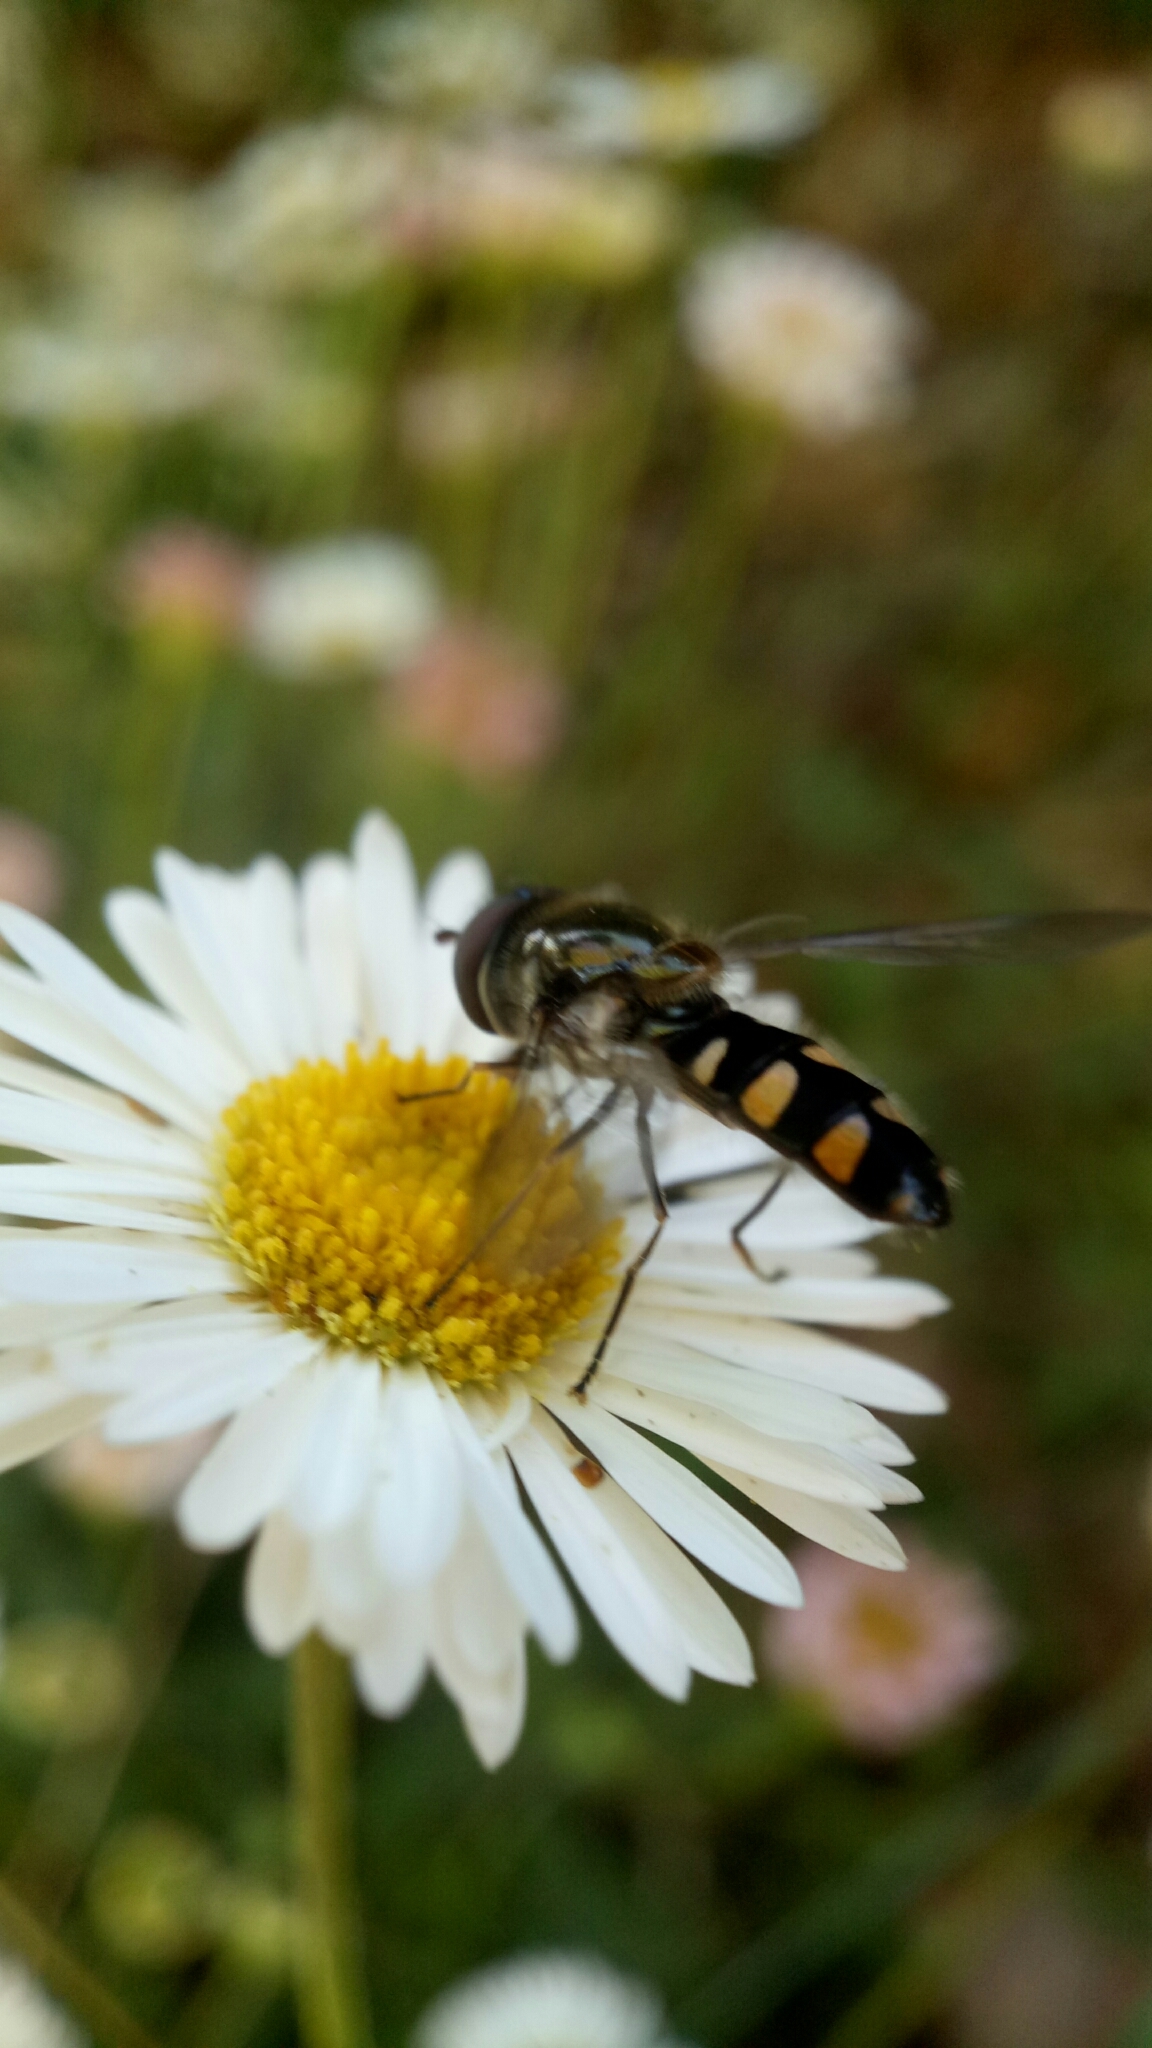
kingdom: Animalia
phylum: Arthropoda
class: Insecta
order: Diptera
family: Syrphidae
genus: Melangyna
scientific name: Melangyna viridiceps
